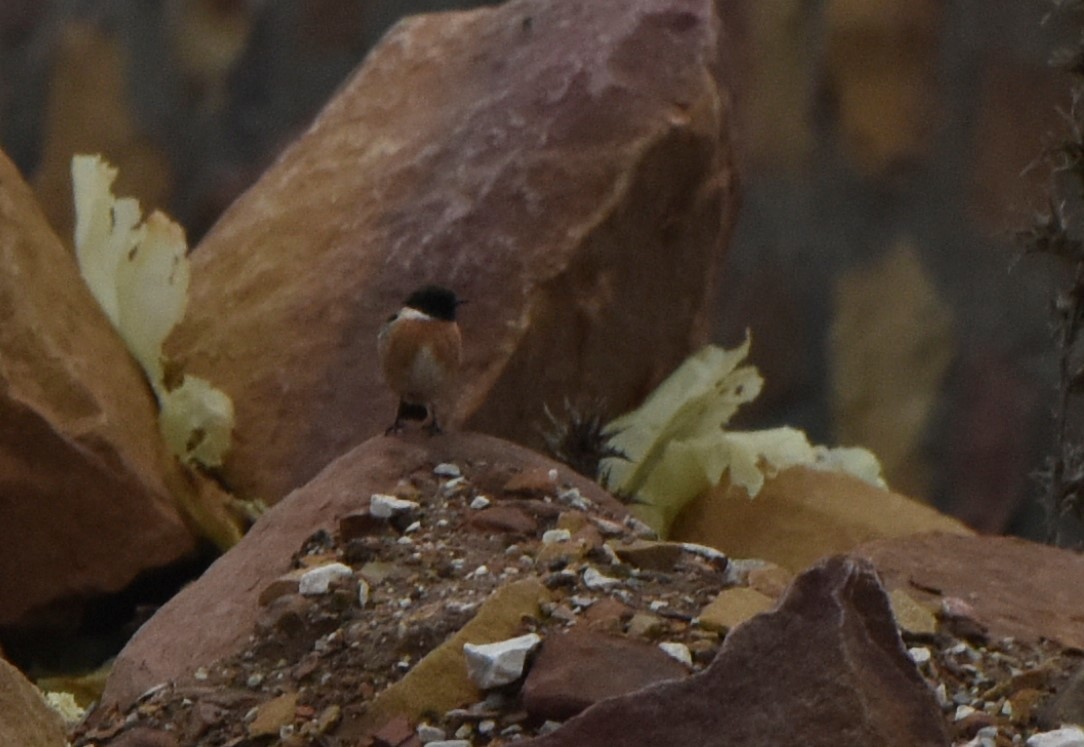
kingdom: Animalia
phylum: Chordata
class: Aves
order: Passeriformes
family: Muscicapidae
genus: Saxicola
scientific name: Saxicola rubicola
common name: European stonechat
